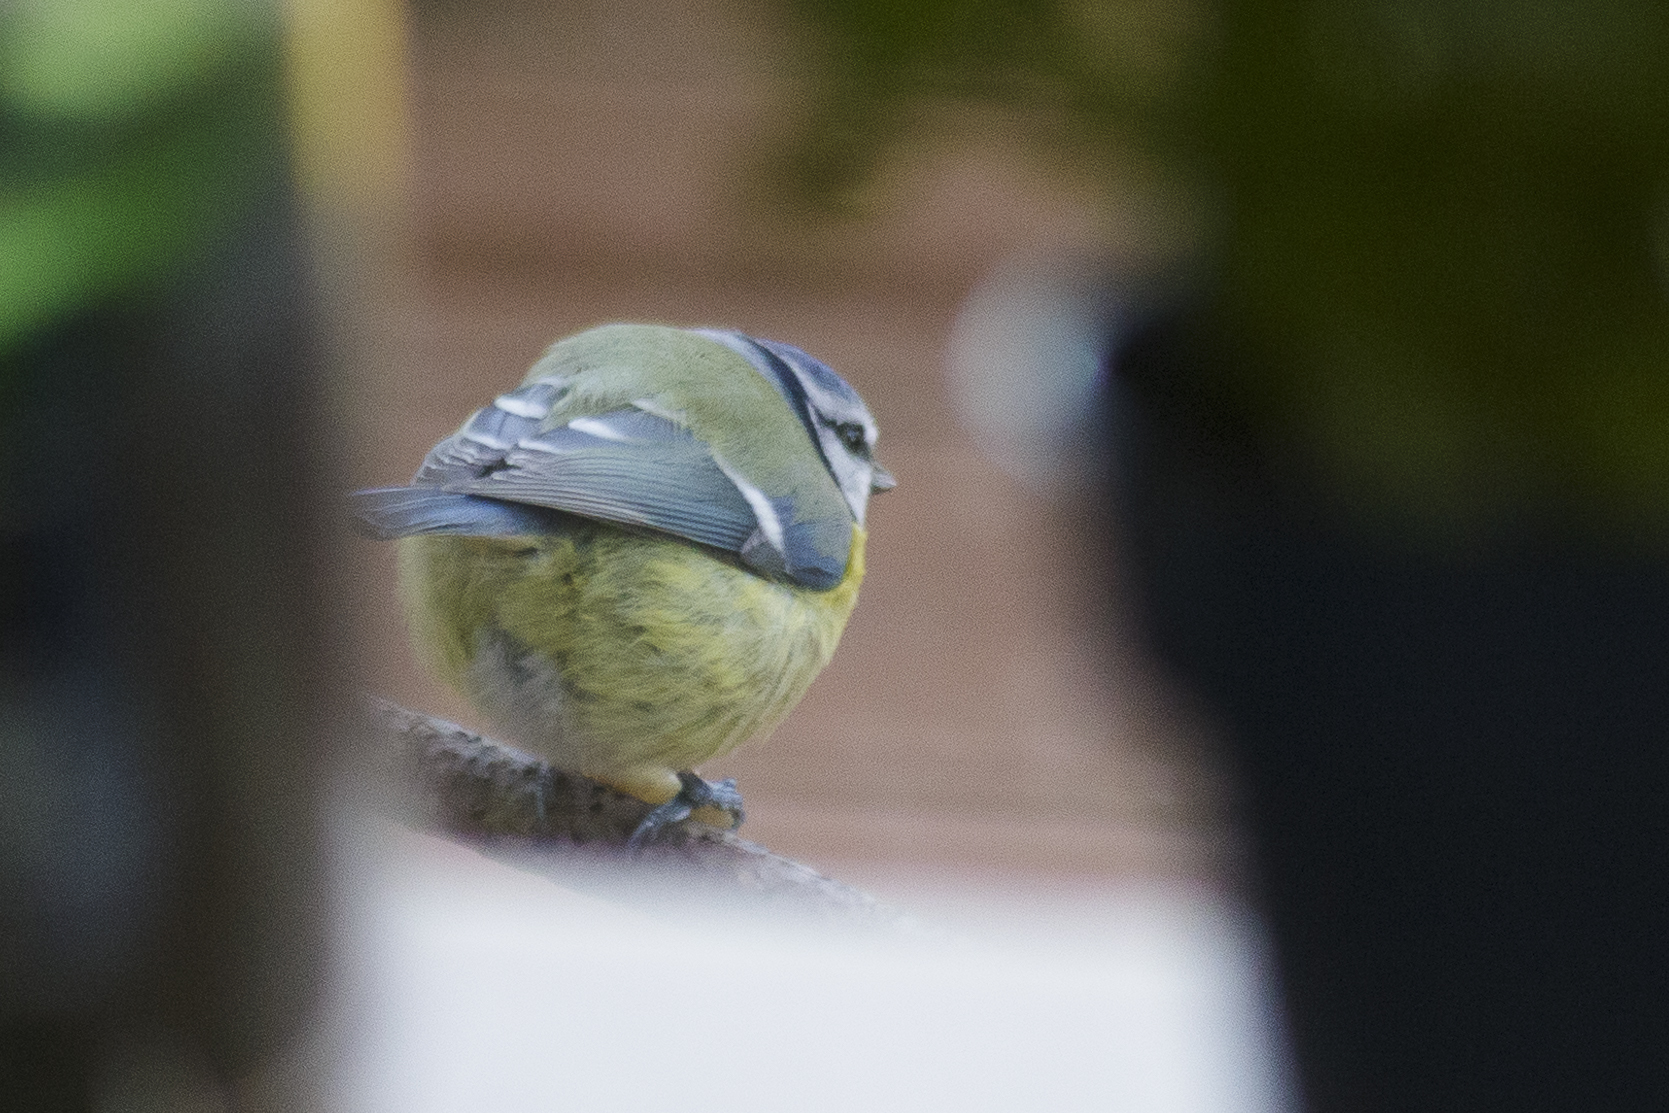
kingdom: Animalia
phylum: Chordata
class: Aves
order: Passeriformes
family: Paridae
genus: Cyanistes
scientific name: Cyanistes caeruleus
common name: Eurasian blue tit
